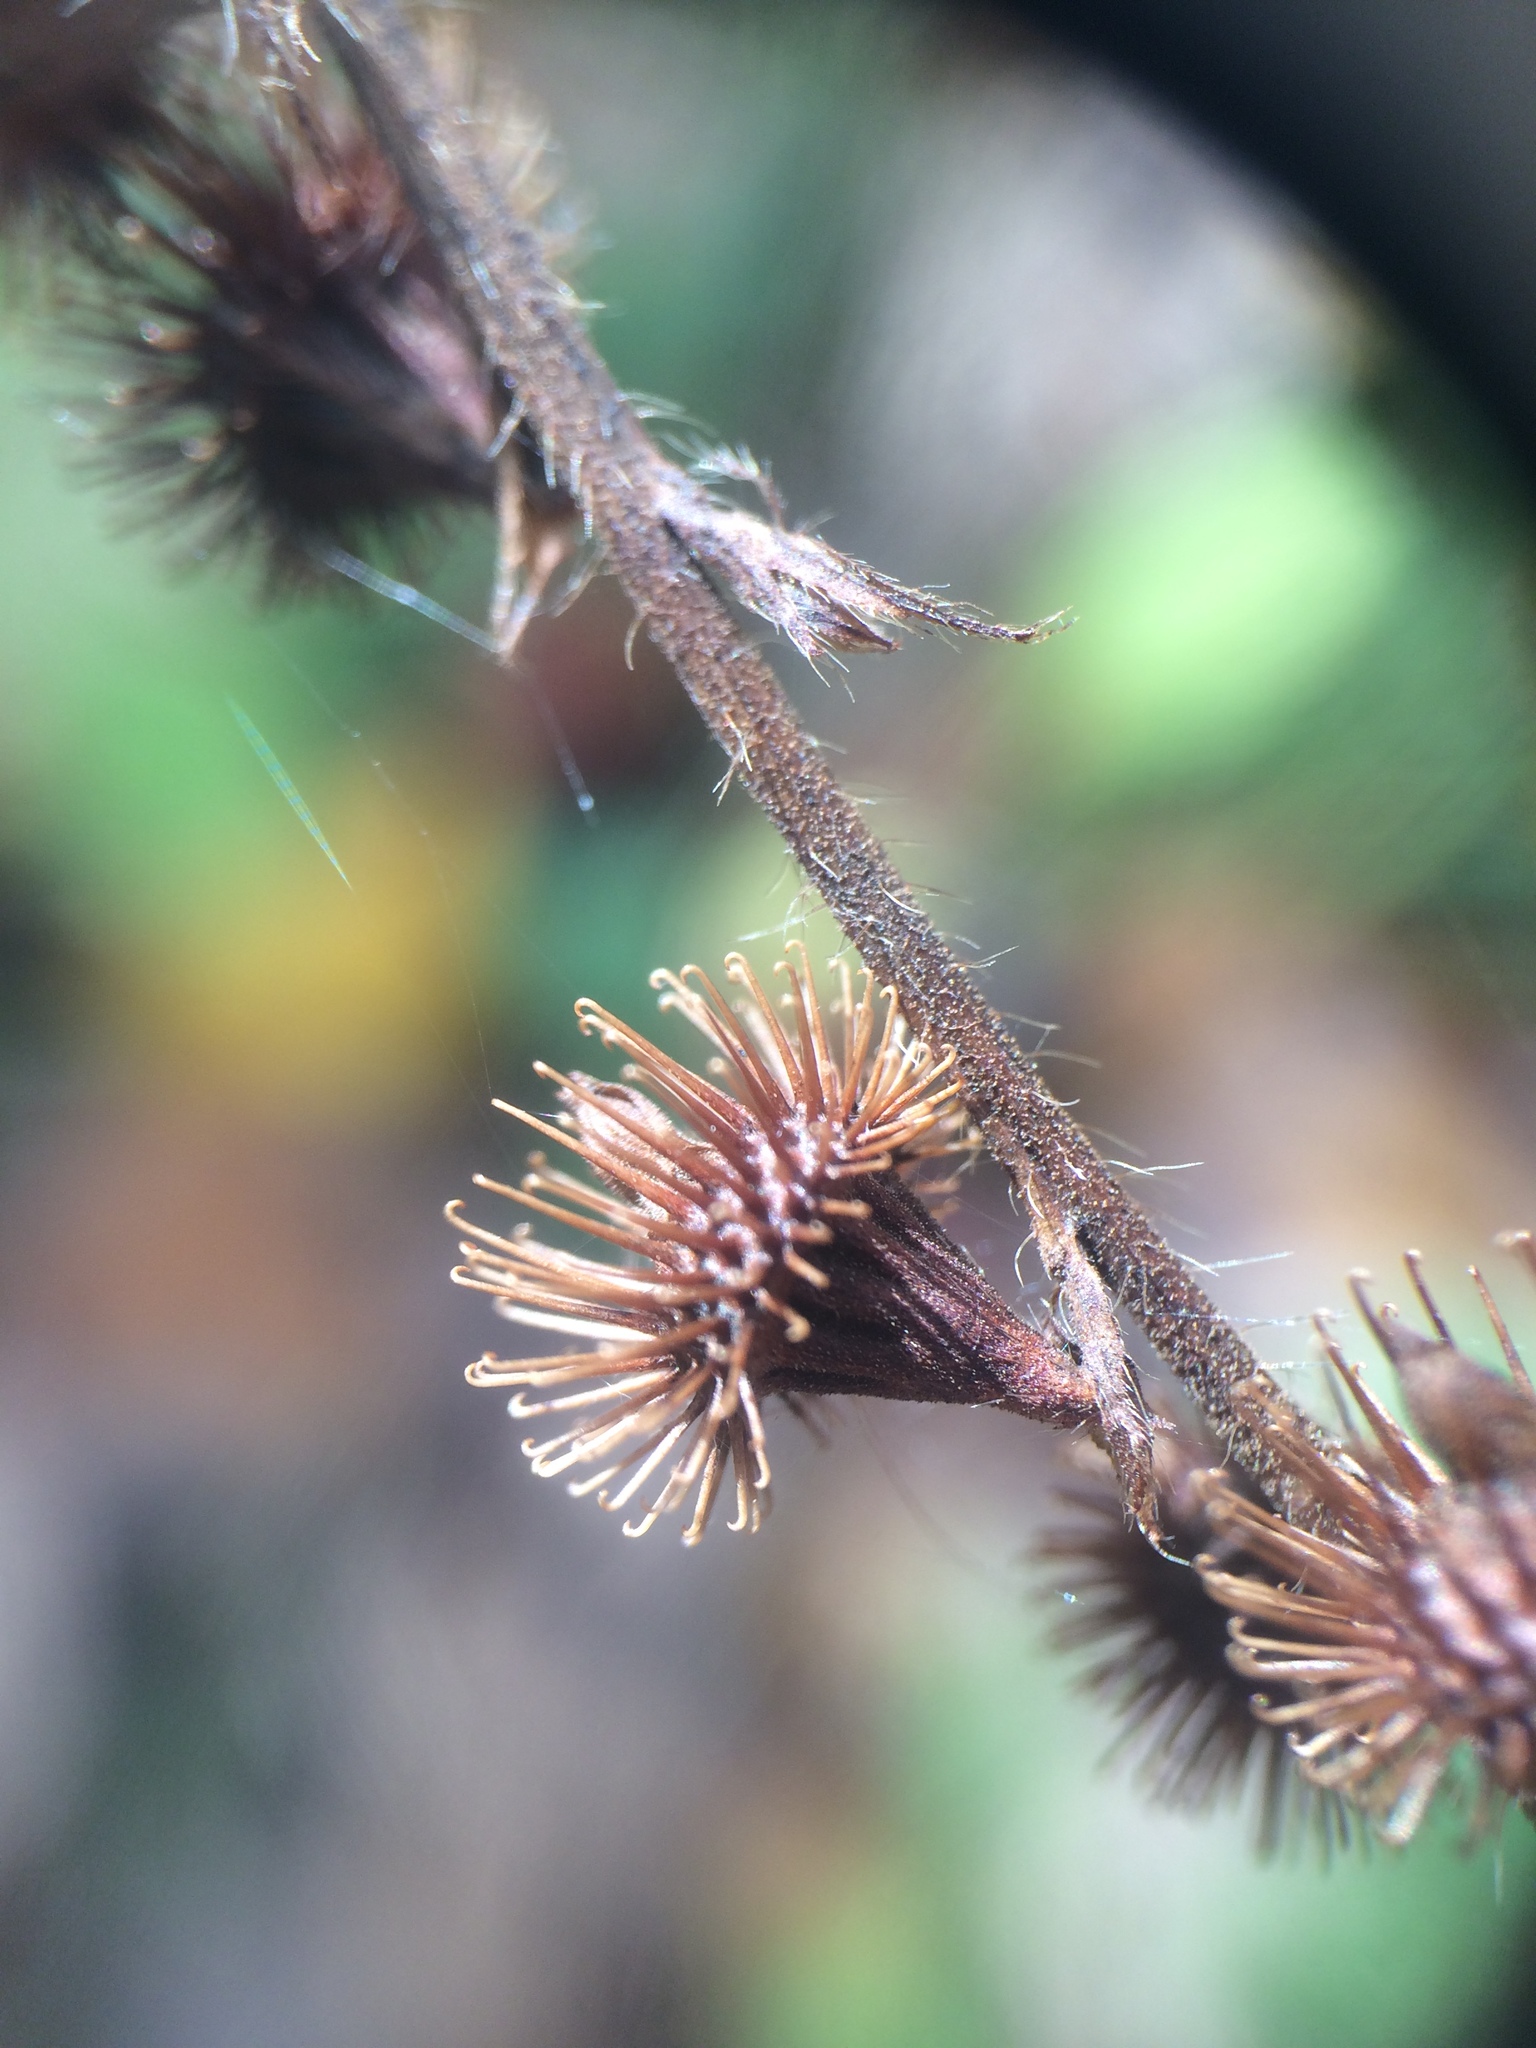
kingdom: Plantae
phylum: Tracheophyta
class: Magnoliopsida
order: Rosales
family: Rosaceae
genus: Agrimonia
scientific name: Agrimonia gryposepala
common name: Common agrimony
